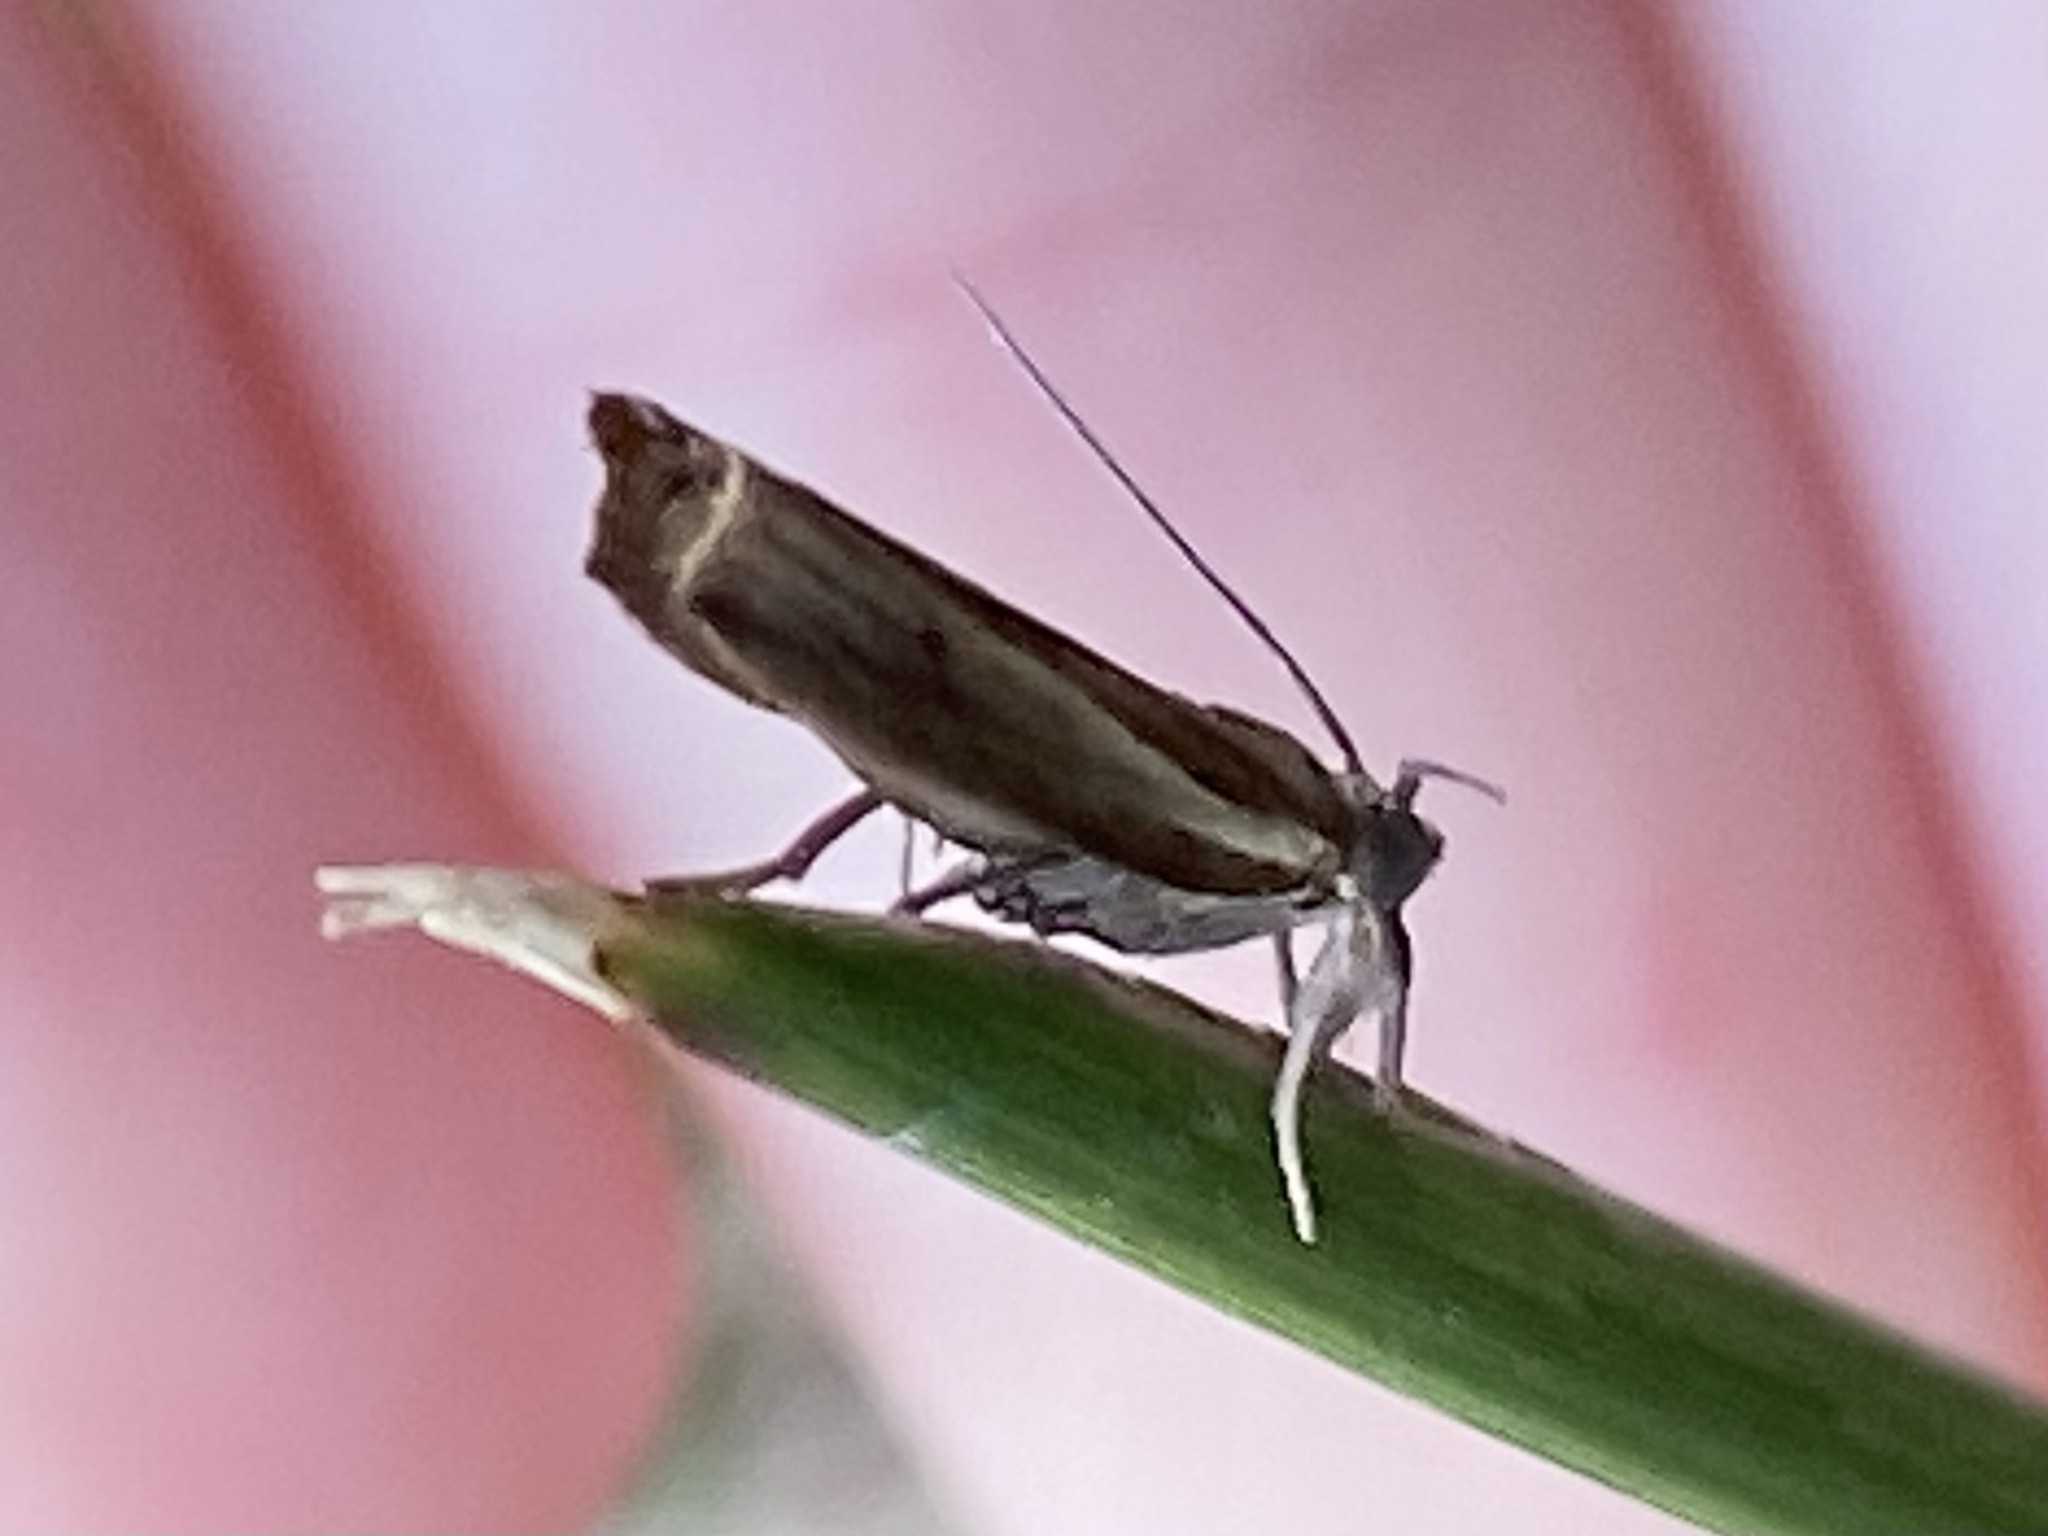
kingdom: Animalia
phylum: Arthropoda
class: Insecta
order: Lepidoptera
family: Crambidae
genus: Fissicrambus
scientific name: Fissicrambus fissiradiellus
